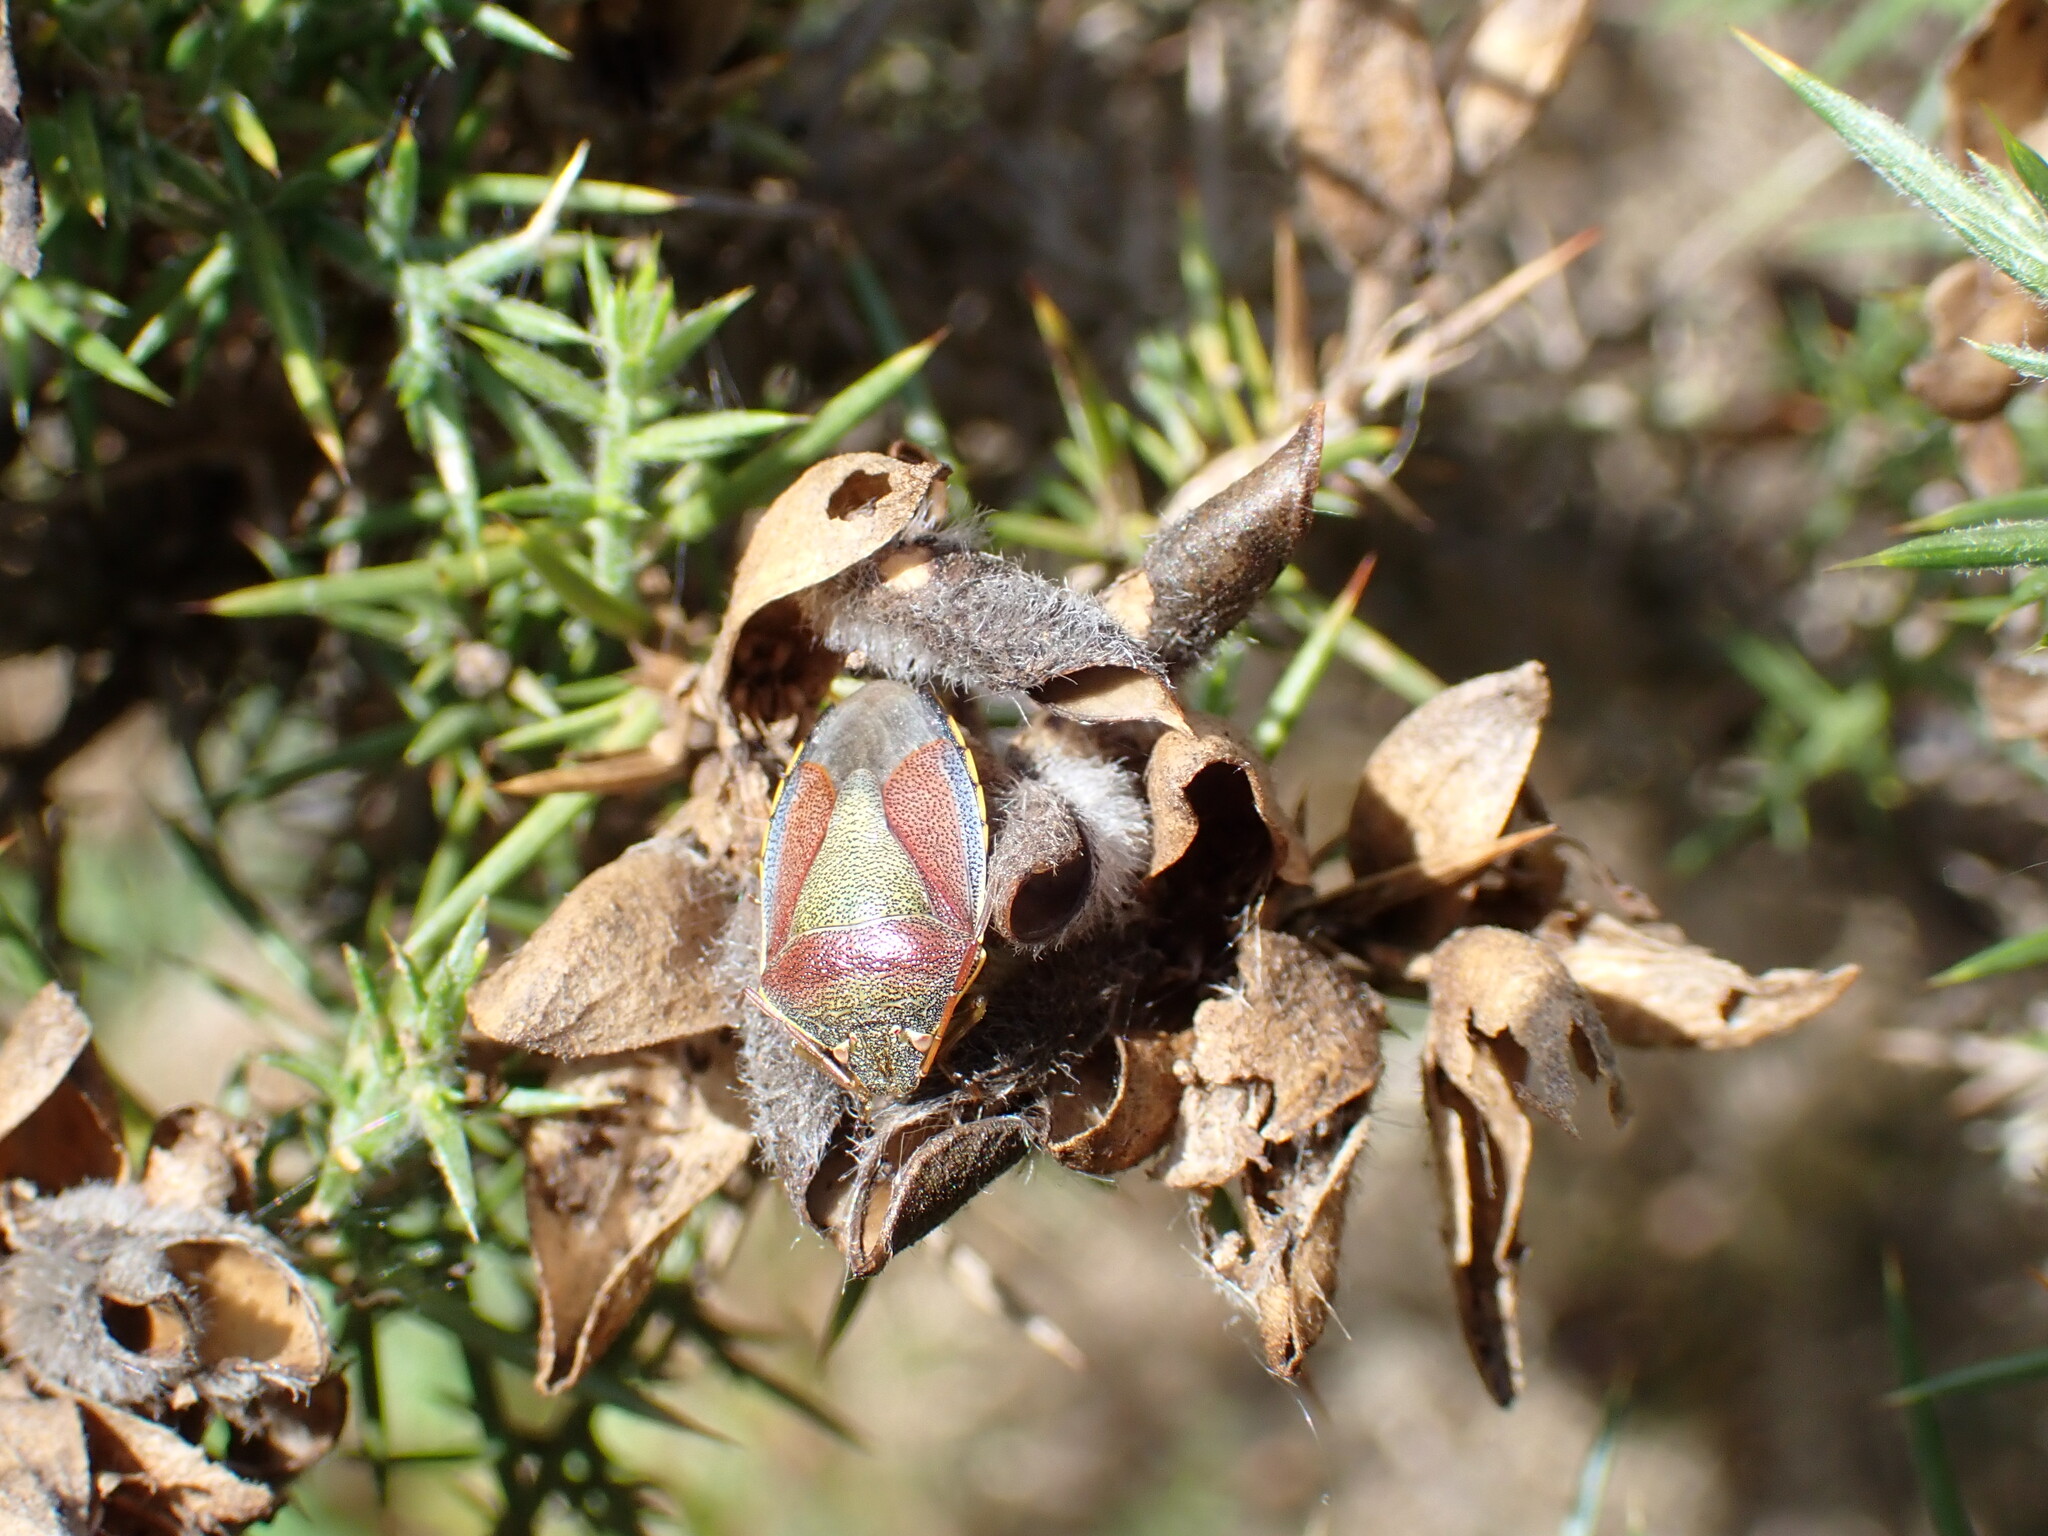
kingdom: Animalia
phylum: Arthropoda
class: Insecta
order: Hemiptera
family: Pentatomidae
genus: Piezodorus
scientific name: Piezodorus lituratus
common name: Stink bug
